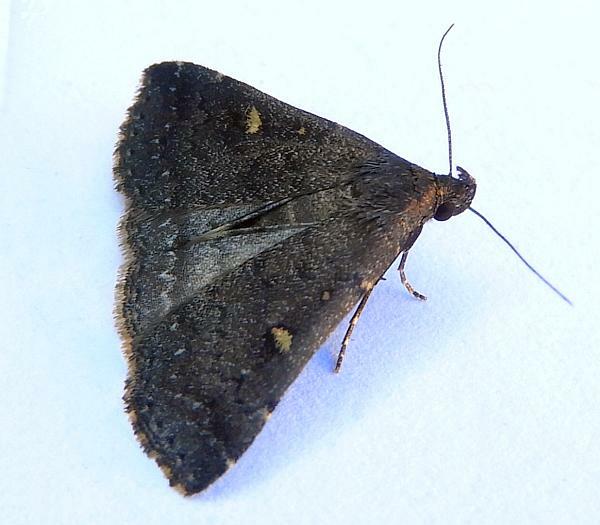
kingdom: Animalia
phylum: Arthropoda
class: Insecta
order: Lepidoptera
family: Erebidae
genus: Tetanolita
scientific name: Tetanolita mynesalis
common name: Smoky tetanolita moth
